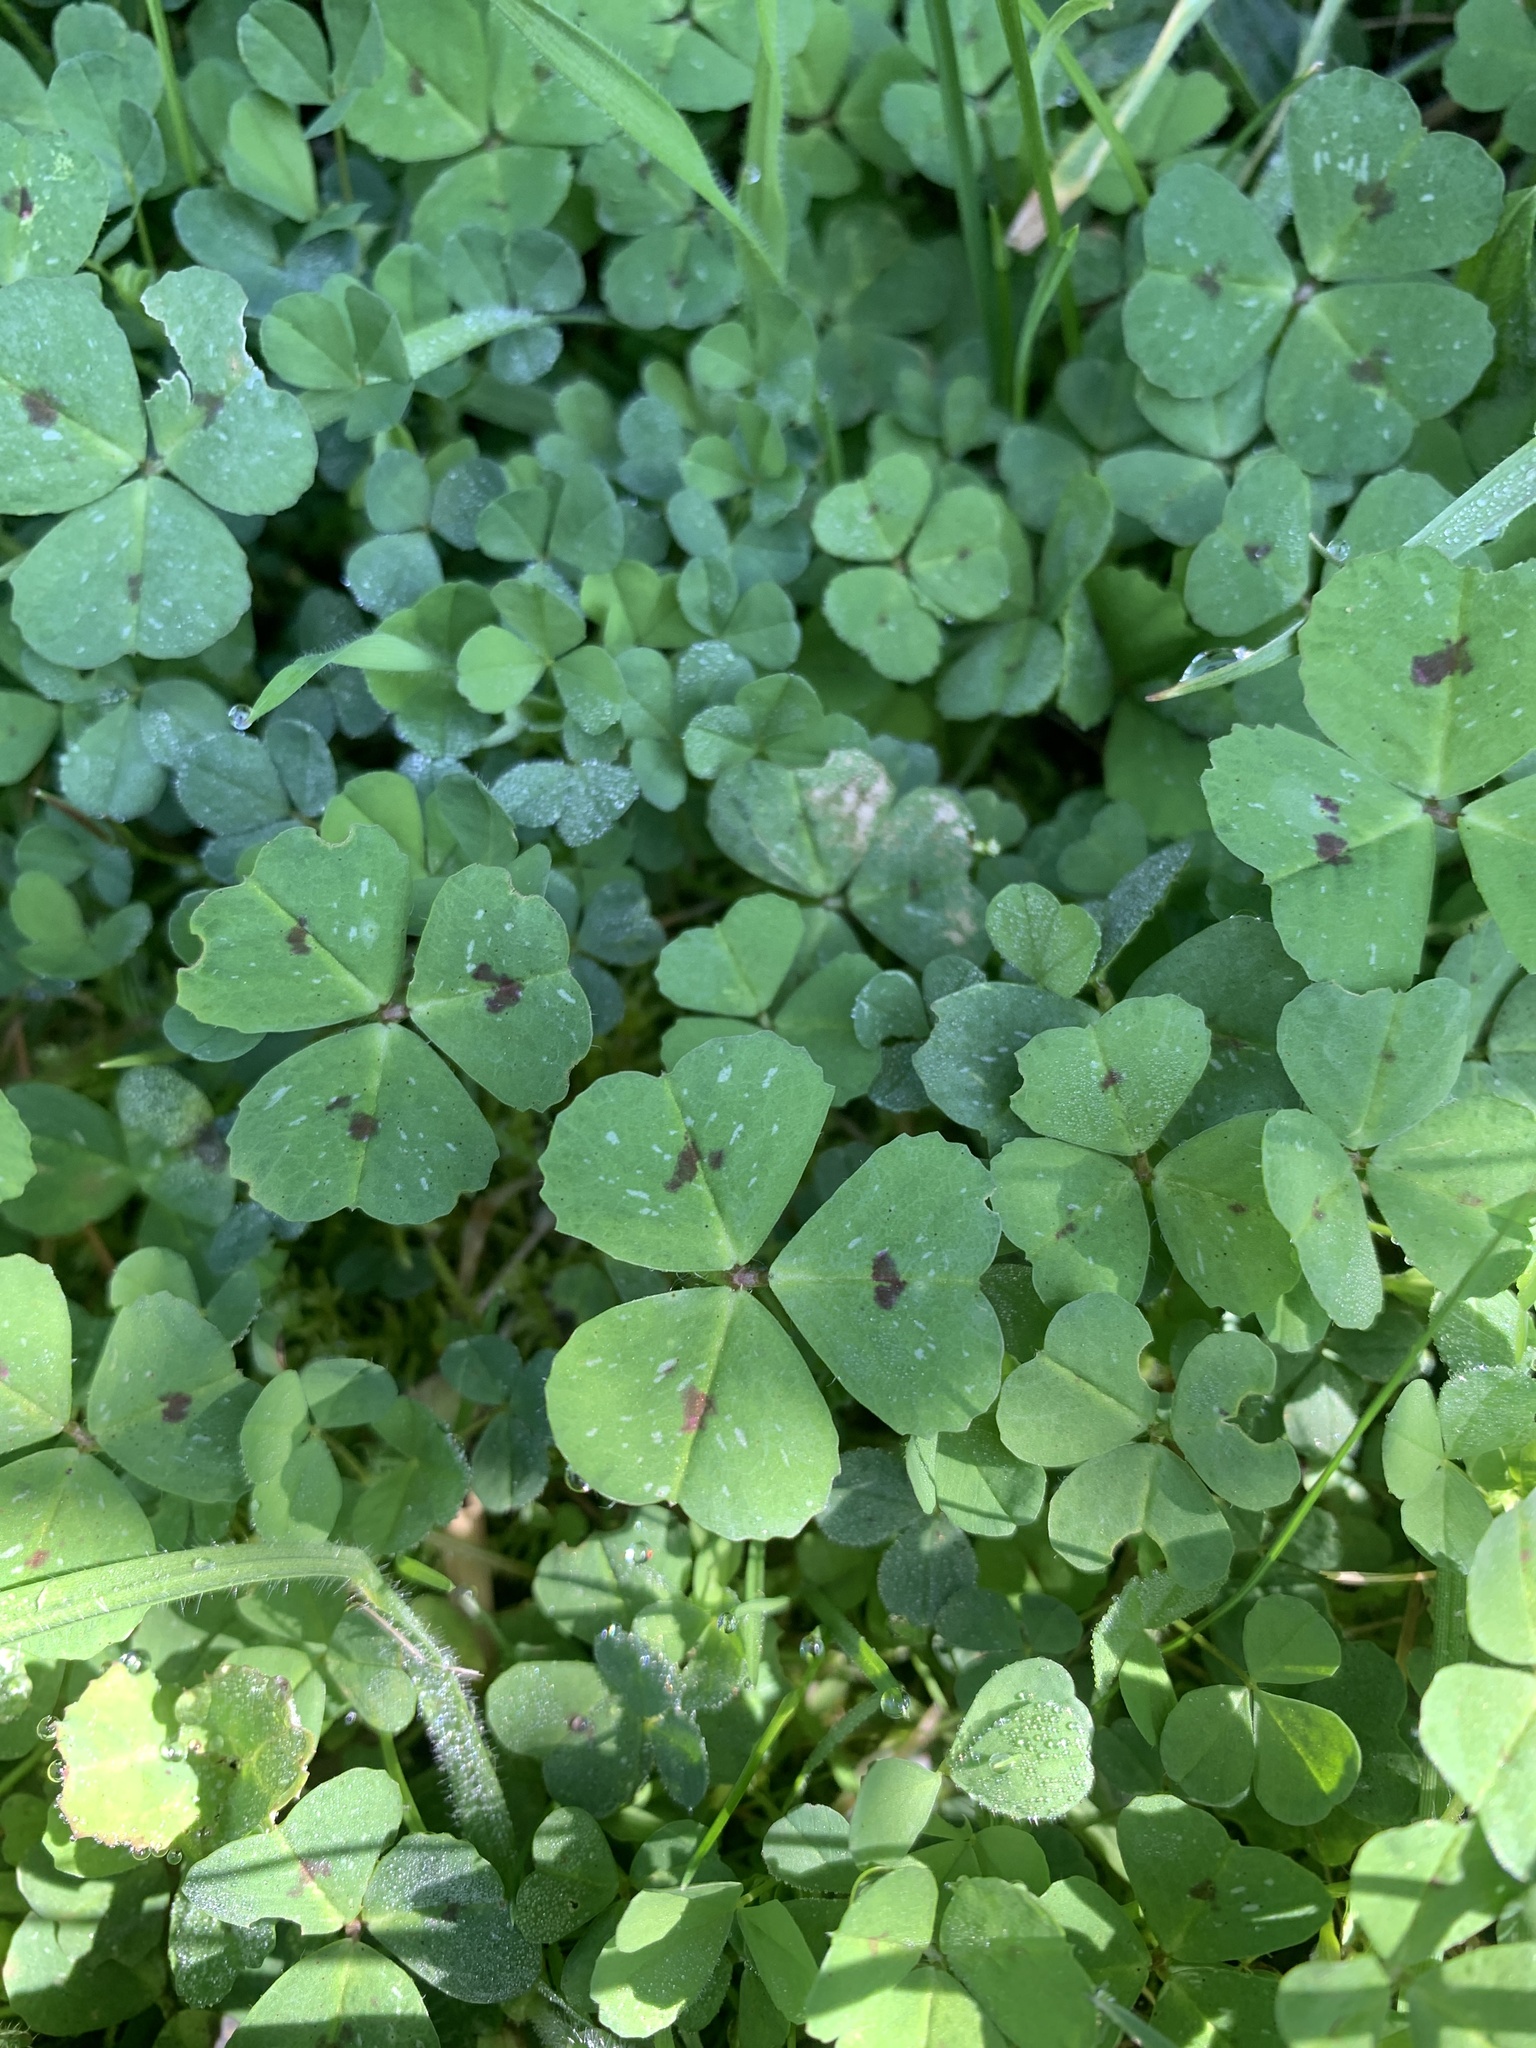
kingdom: Plantae
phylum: Tracheophyta
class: Magnoliopsida
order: Fabales
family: Fabaceae
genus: Medicago
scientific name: Medicago arabica
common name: Spotted medick
